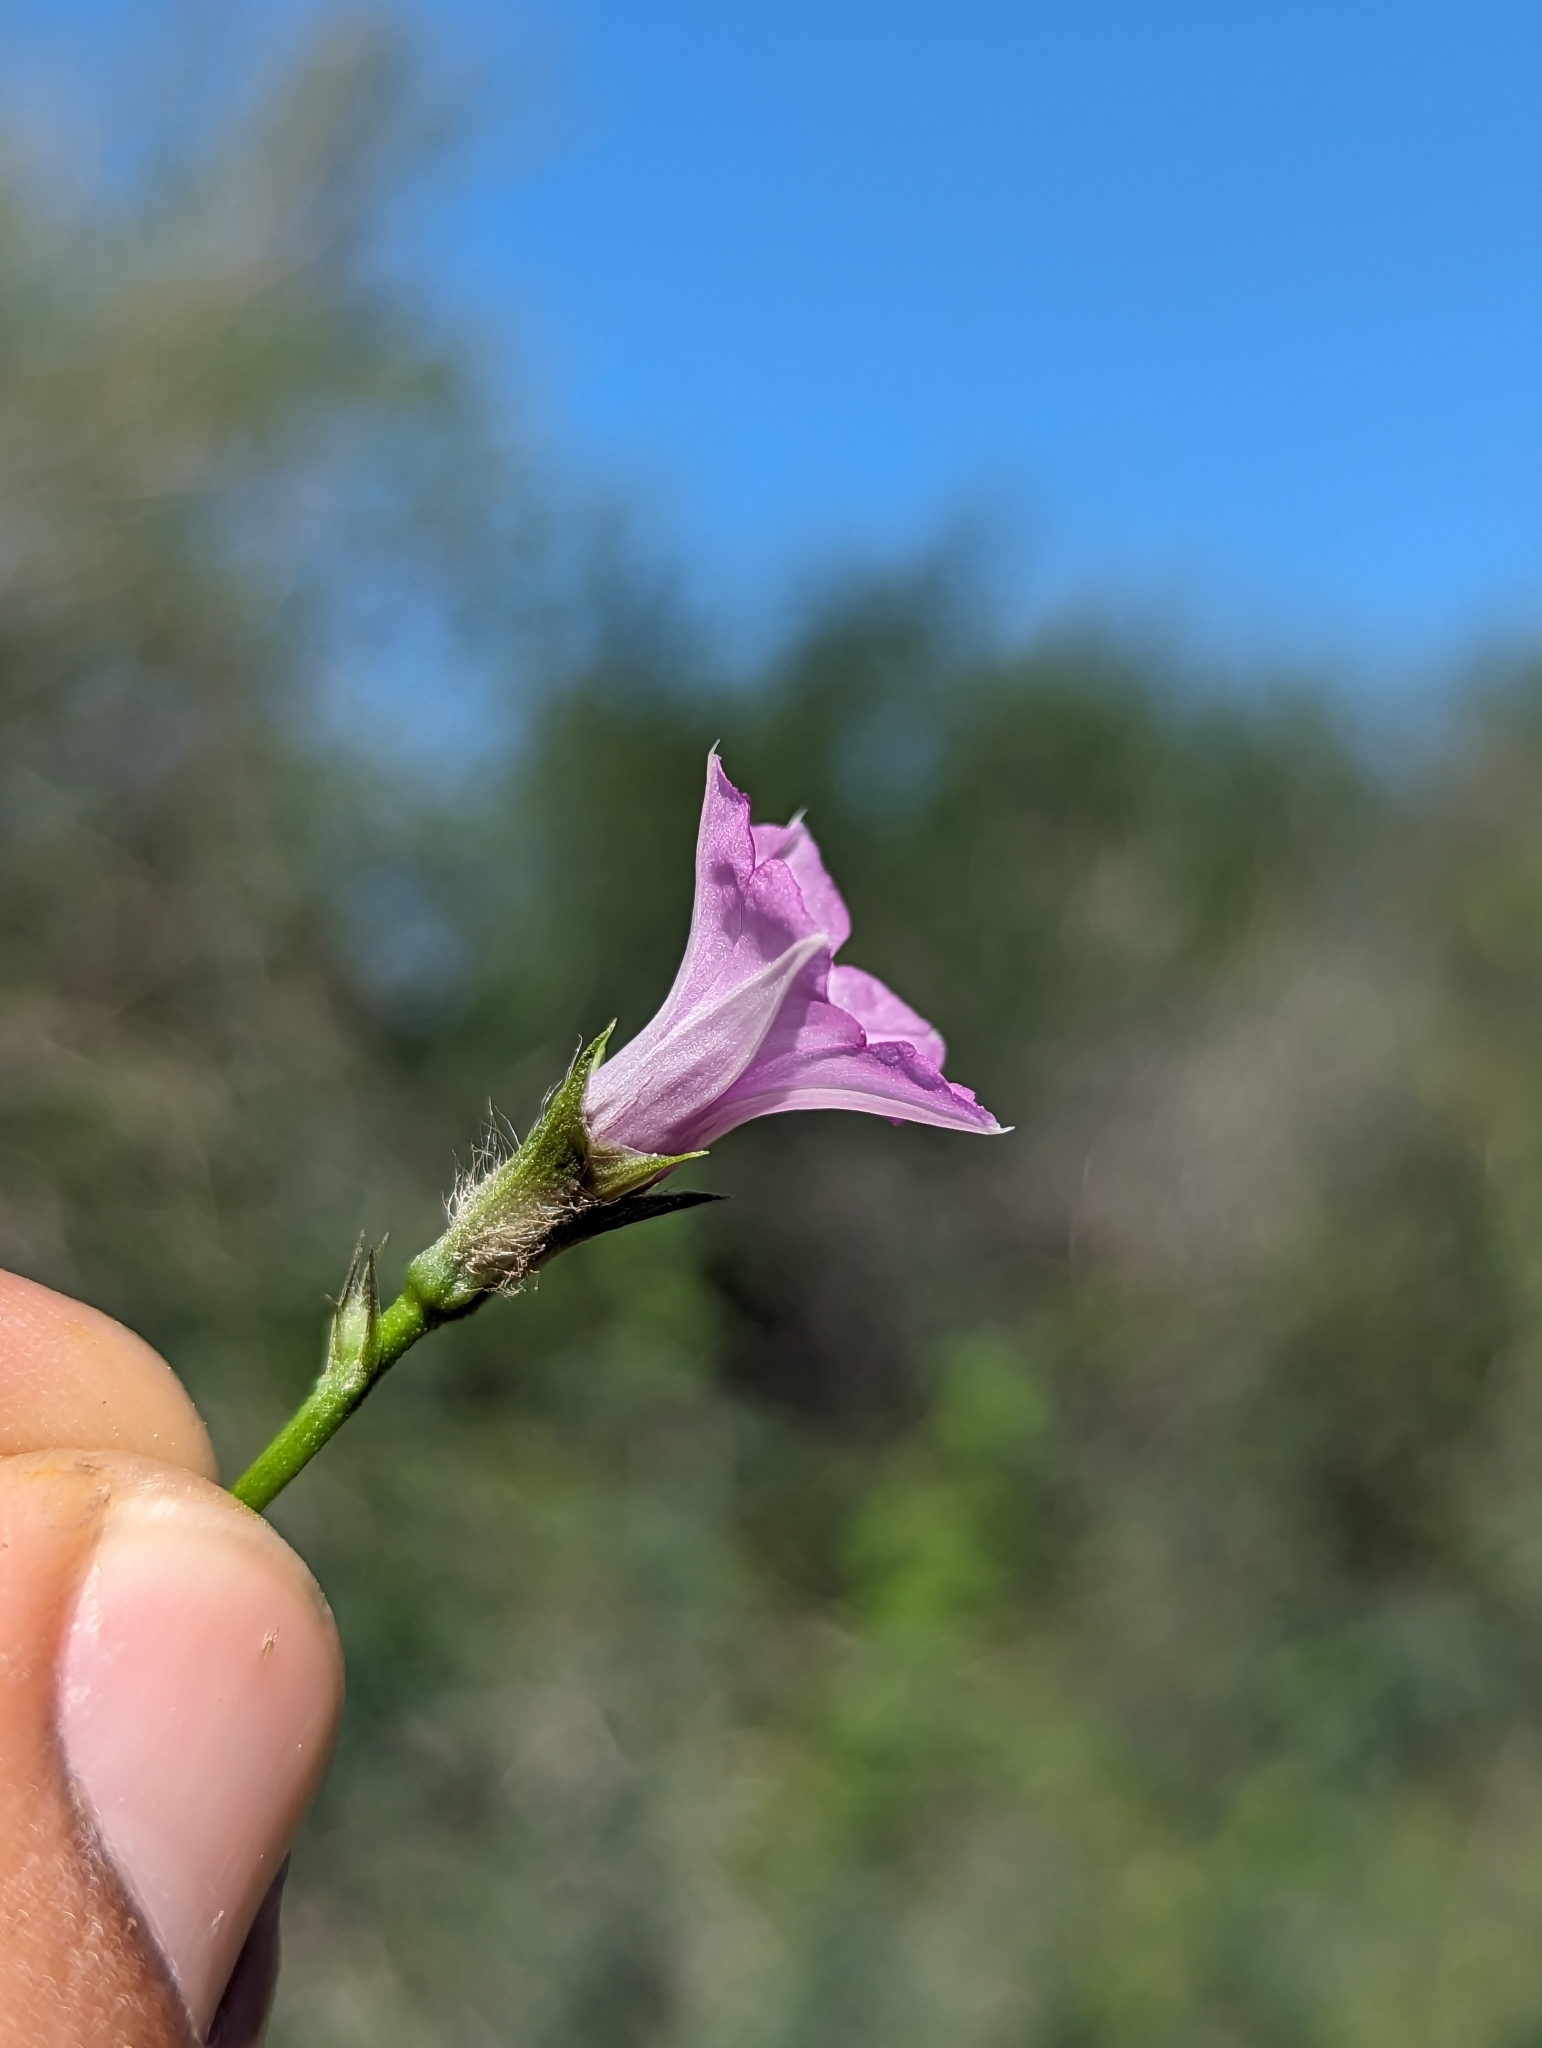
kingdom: Plantae
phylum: Tracheophyta
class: Magnoliopsida
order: Solanales
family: Convolvulaceae
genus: Ipomoea
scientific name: Ipomoea triloba
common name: Little-bell
